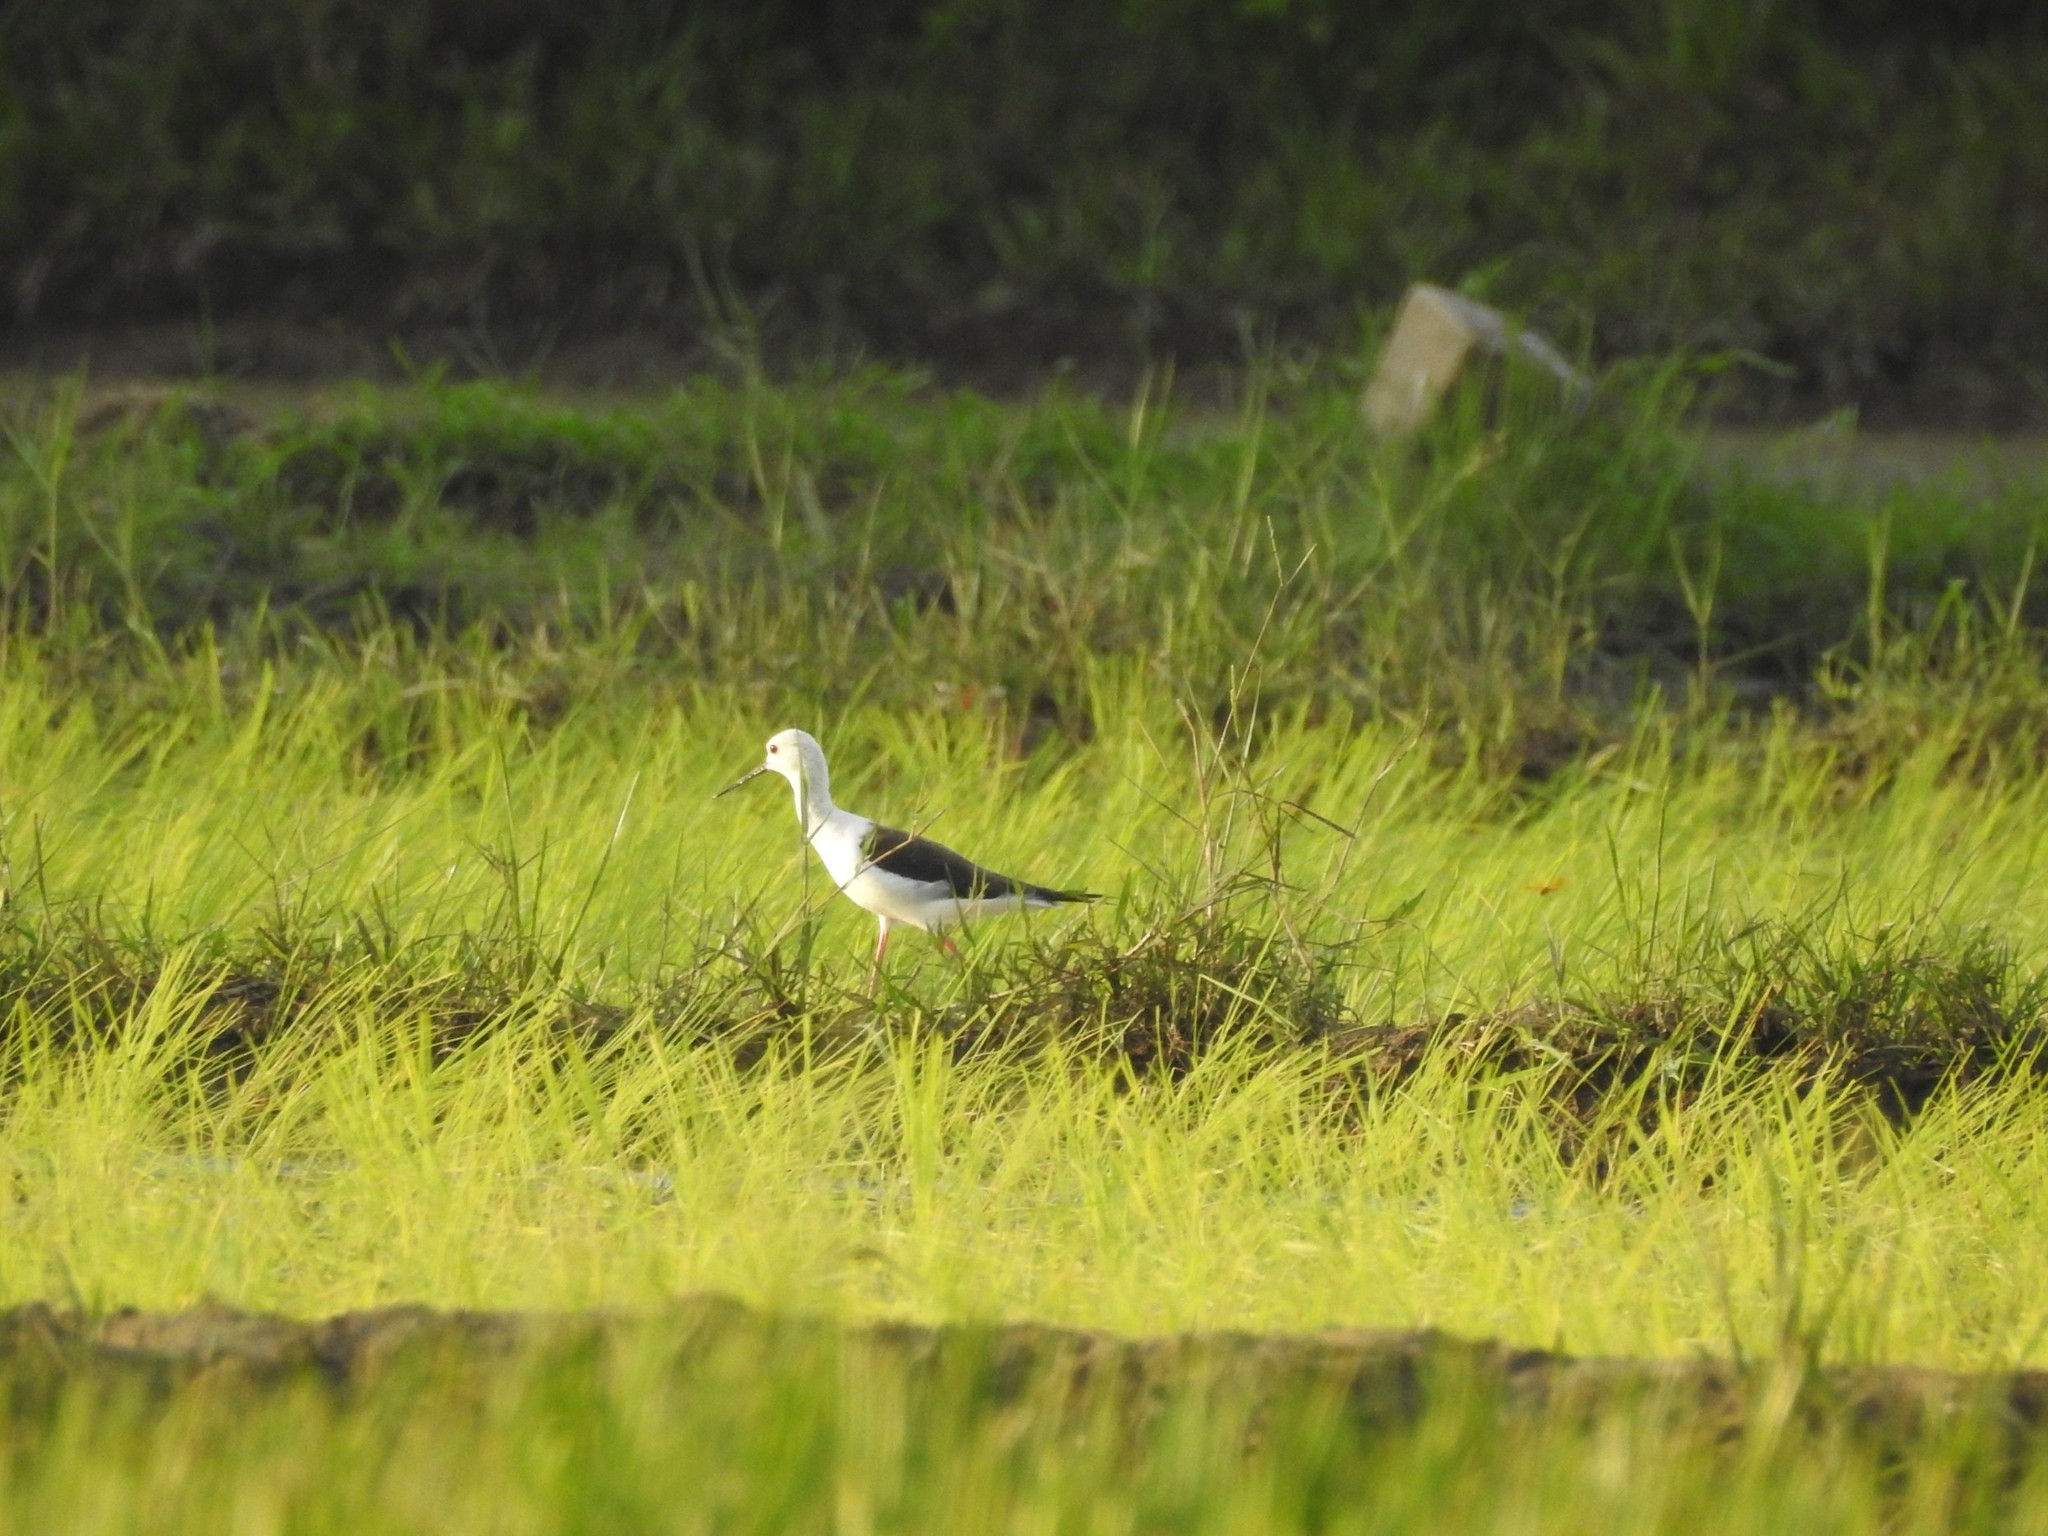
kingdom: Animalia
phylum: Chordata
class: Aves
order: Charadriiformes
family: Recurvirostridae
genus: Himantopus
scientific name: Himantopus himantopus
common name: Black-winged stilt
